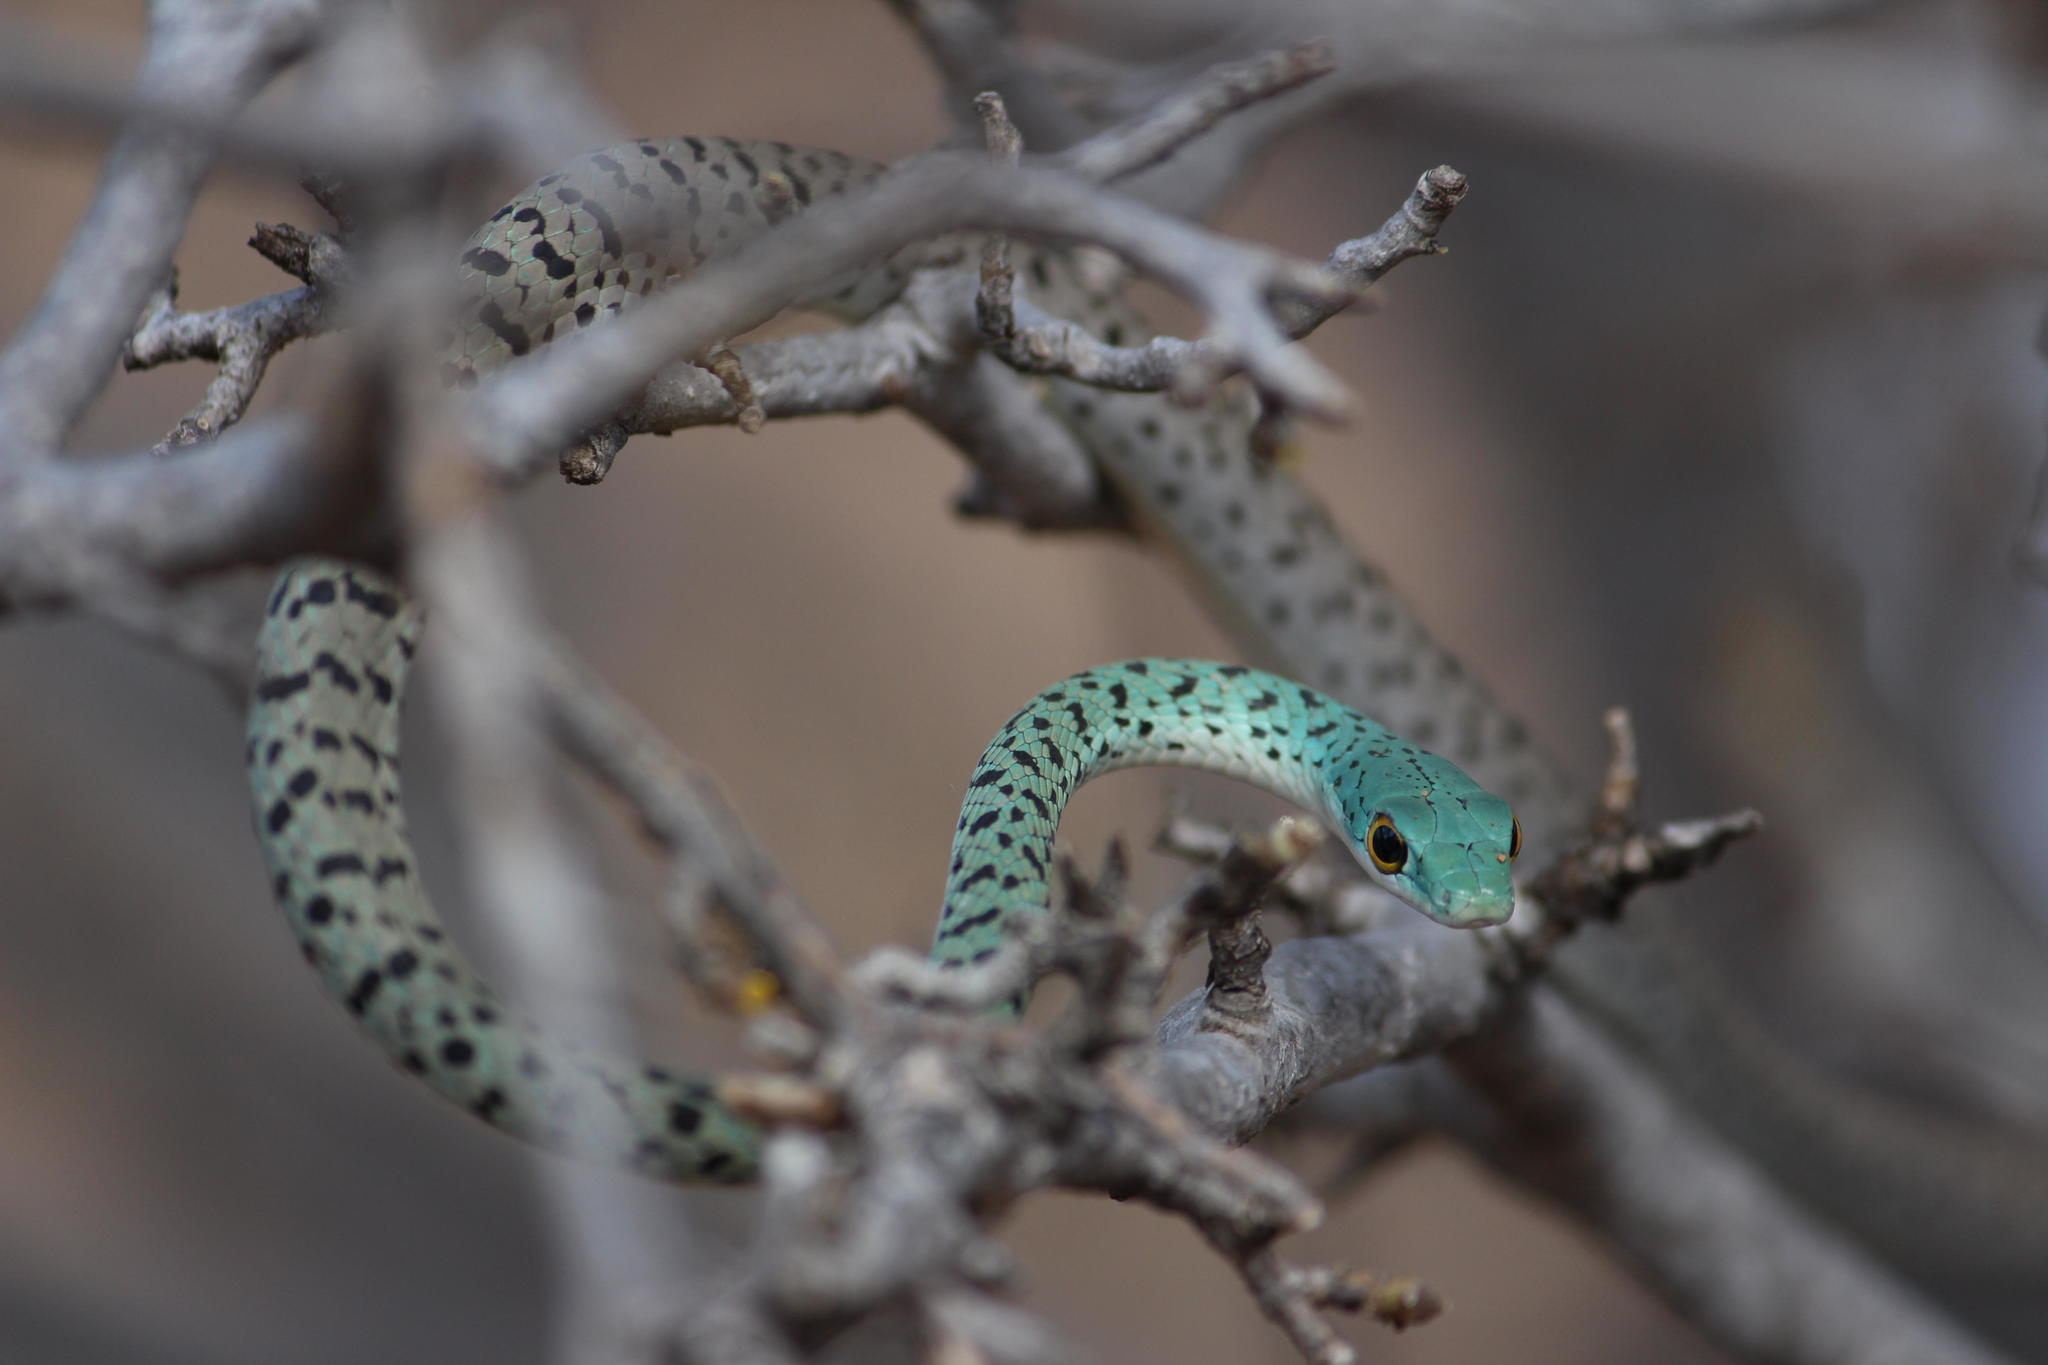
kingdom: Animalia
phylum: Chordata
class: Squamata
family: Colubridae
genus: Philothamnus
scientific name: Philothamnus semivariegatus
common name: Spotted bush snake
